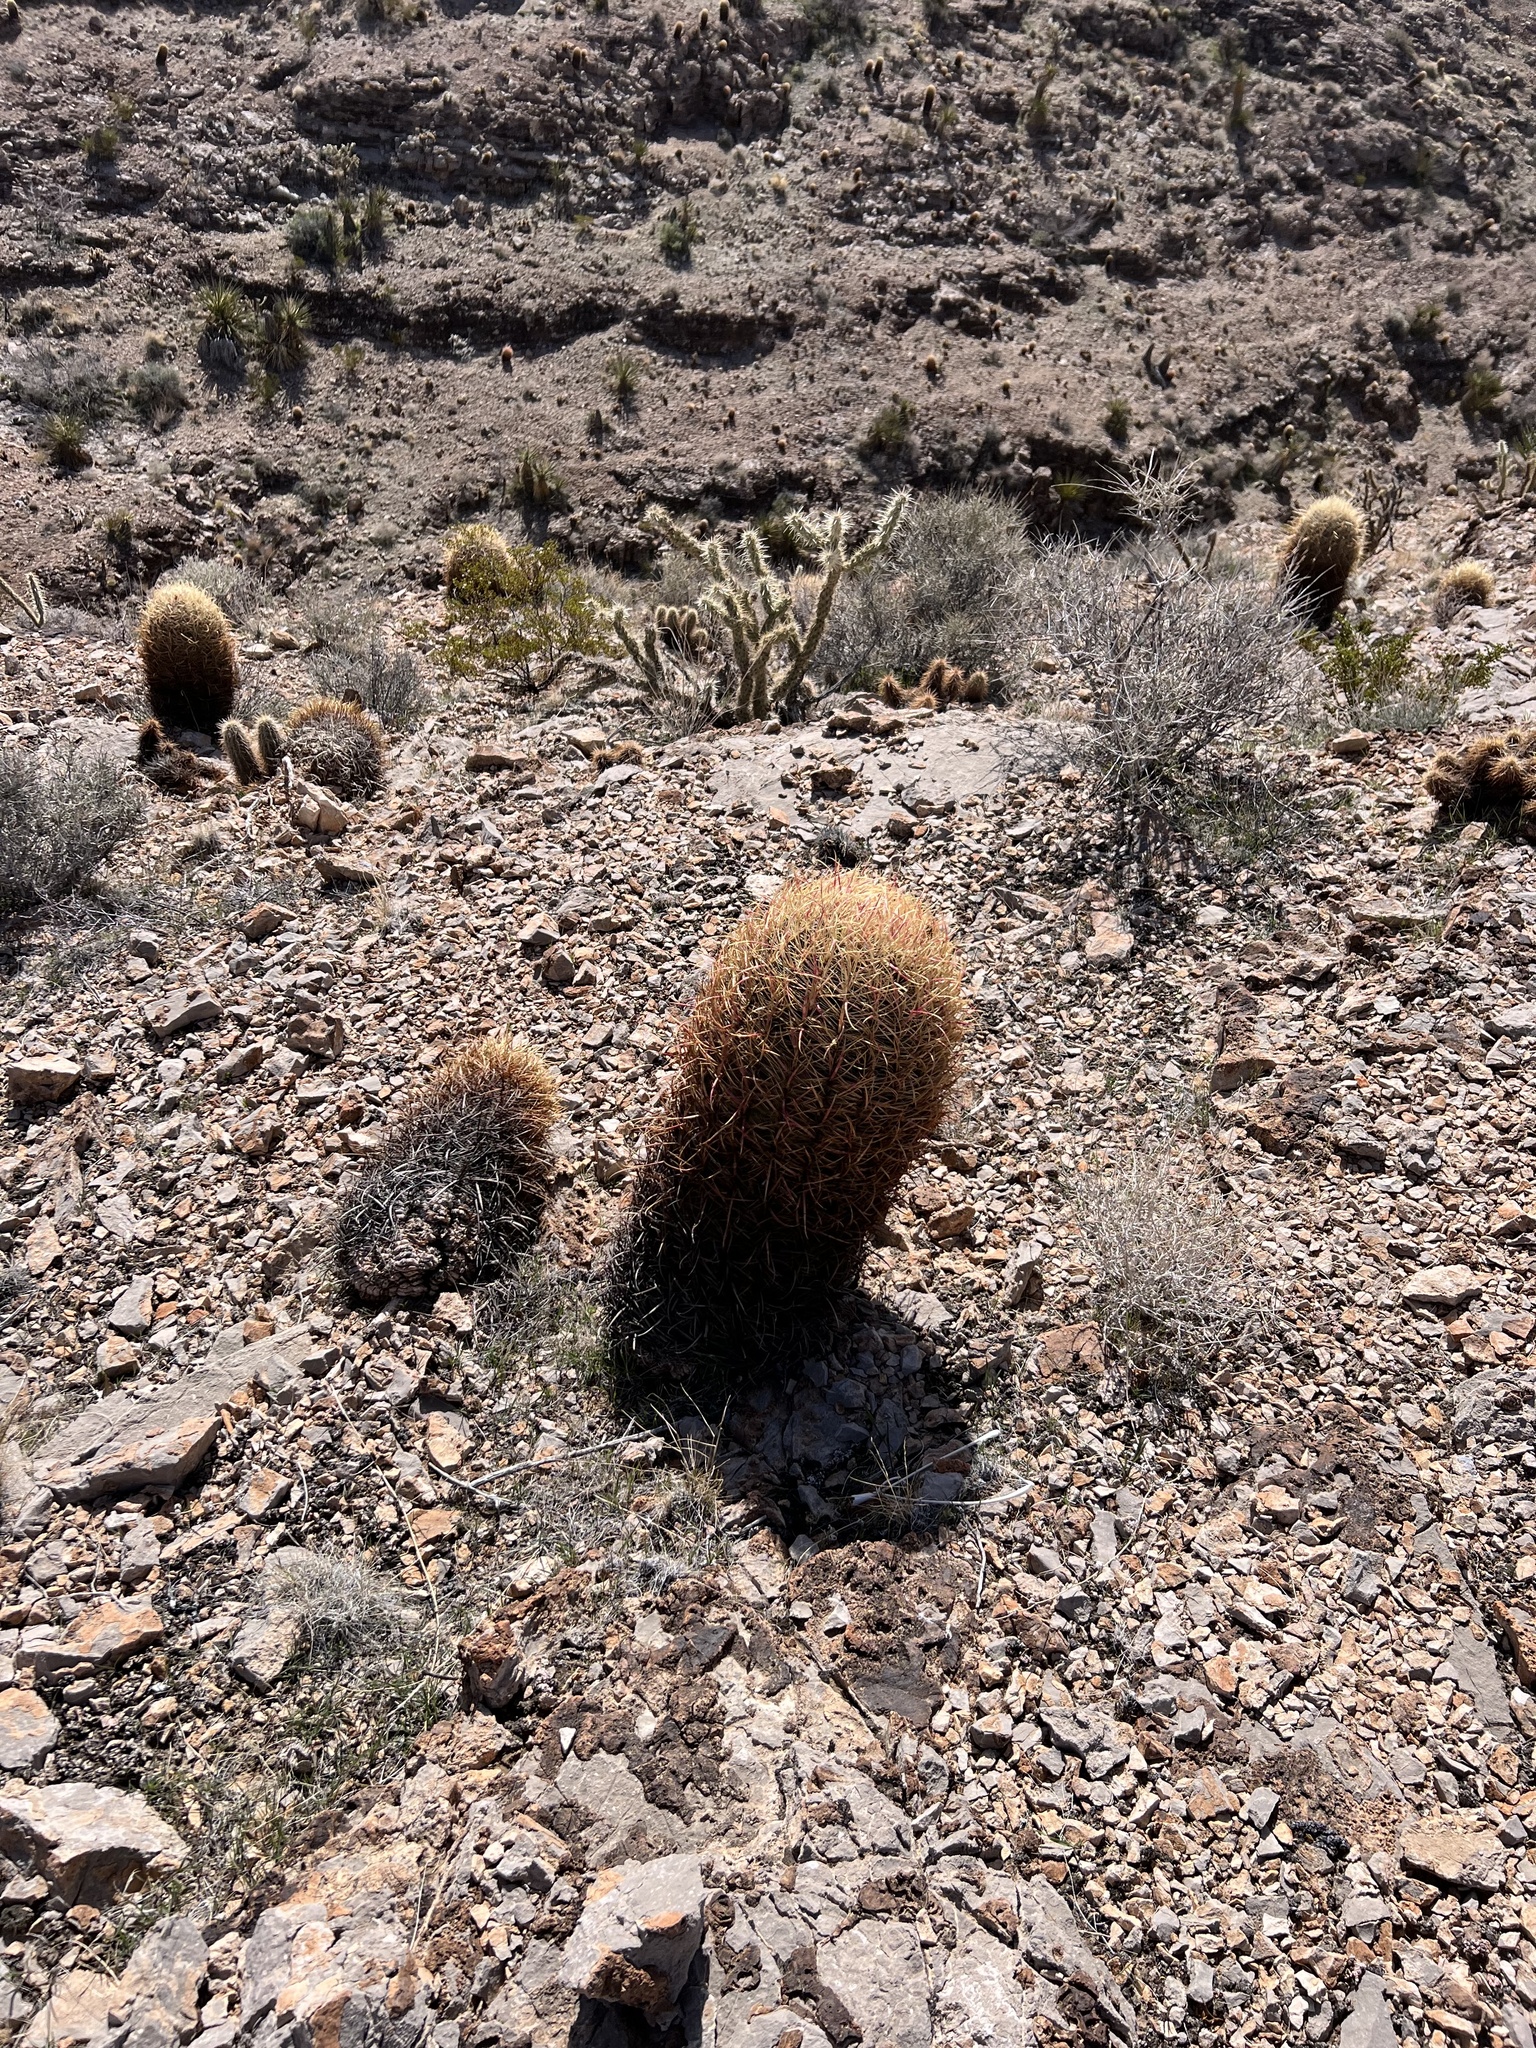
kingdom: Plantae
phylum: Tracheophyta
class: Magnoliopsida
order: Caryophyllales
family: Cactaceae
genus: Ferocactus
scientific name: Ferocactus cylindraceus
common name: California barrel cactus
